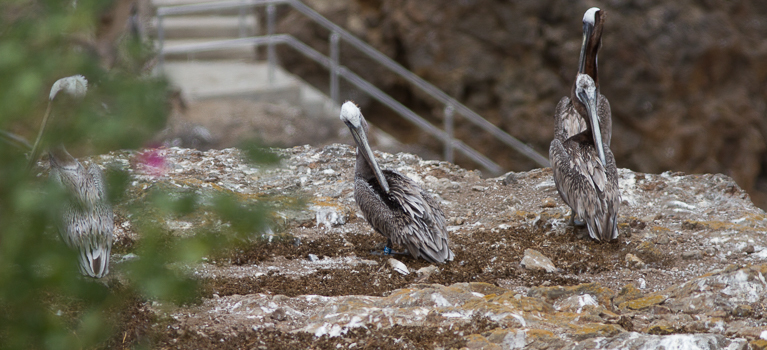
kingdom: Animalia
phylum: Chordata
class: Aves
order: Pelecaniformes
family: Pelecanidae
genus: Pelecanus
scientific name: Pelecanus occidentalis
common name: Brown pelican
